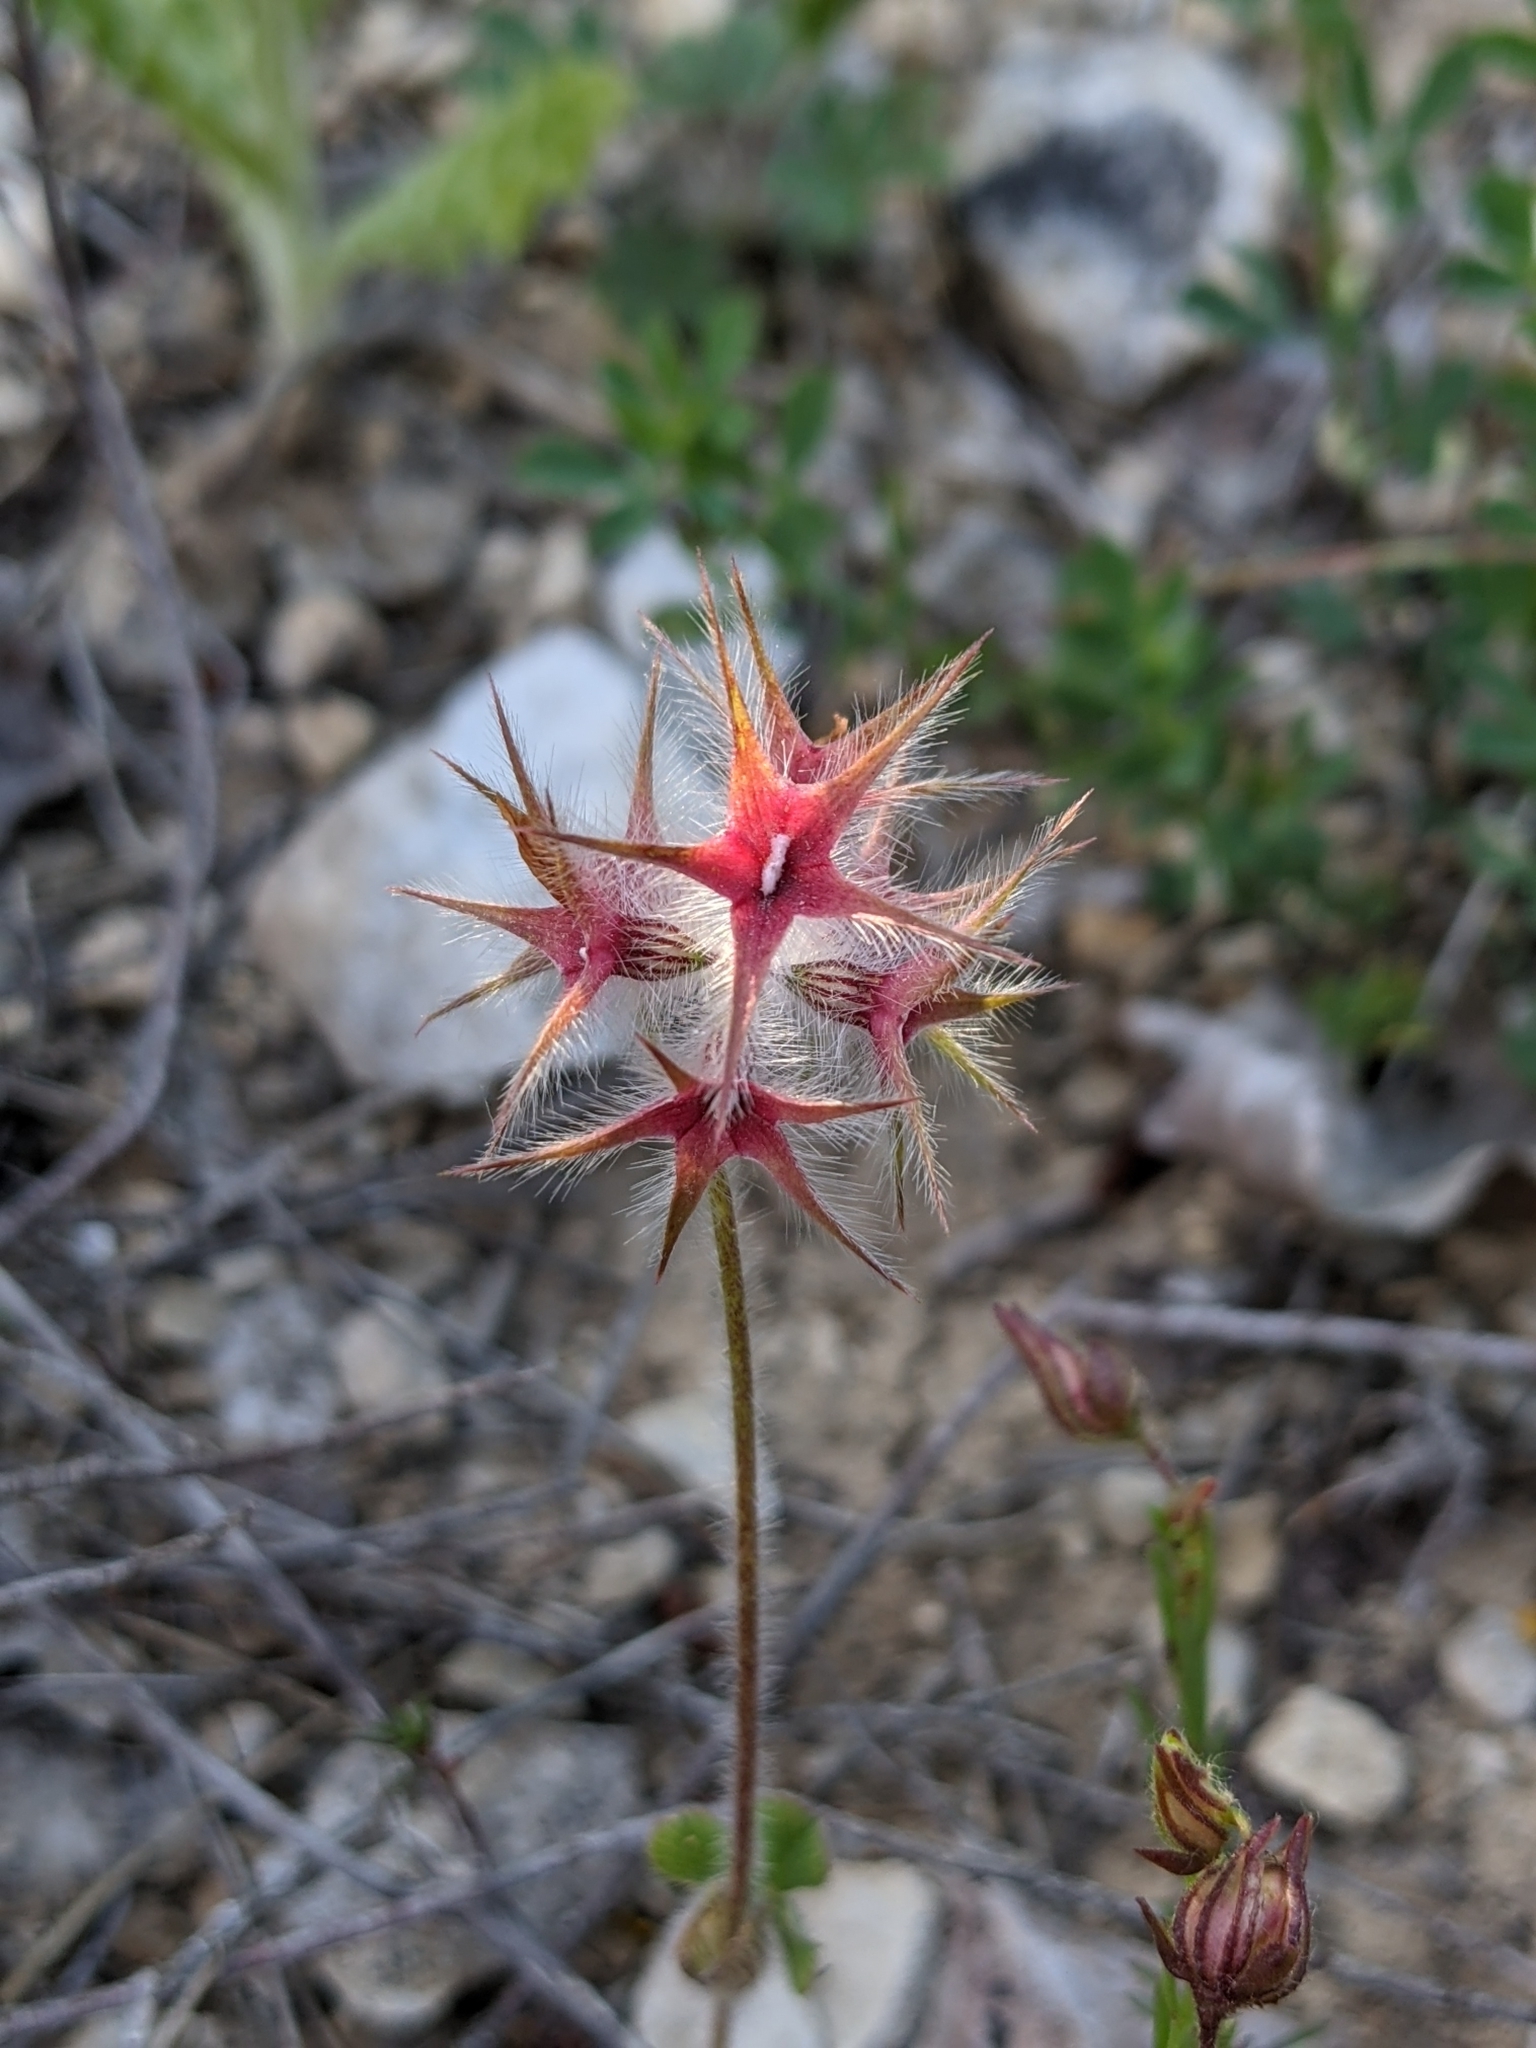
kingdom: Plantae
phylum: Tracheophyta
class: Magnoliopsida
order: Fabales
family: Fabaceae
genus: Trifolium
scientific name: Trifolium stellatum
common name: Starry clover
